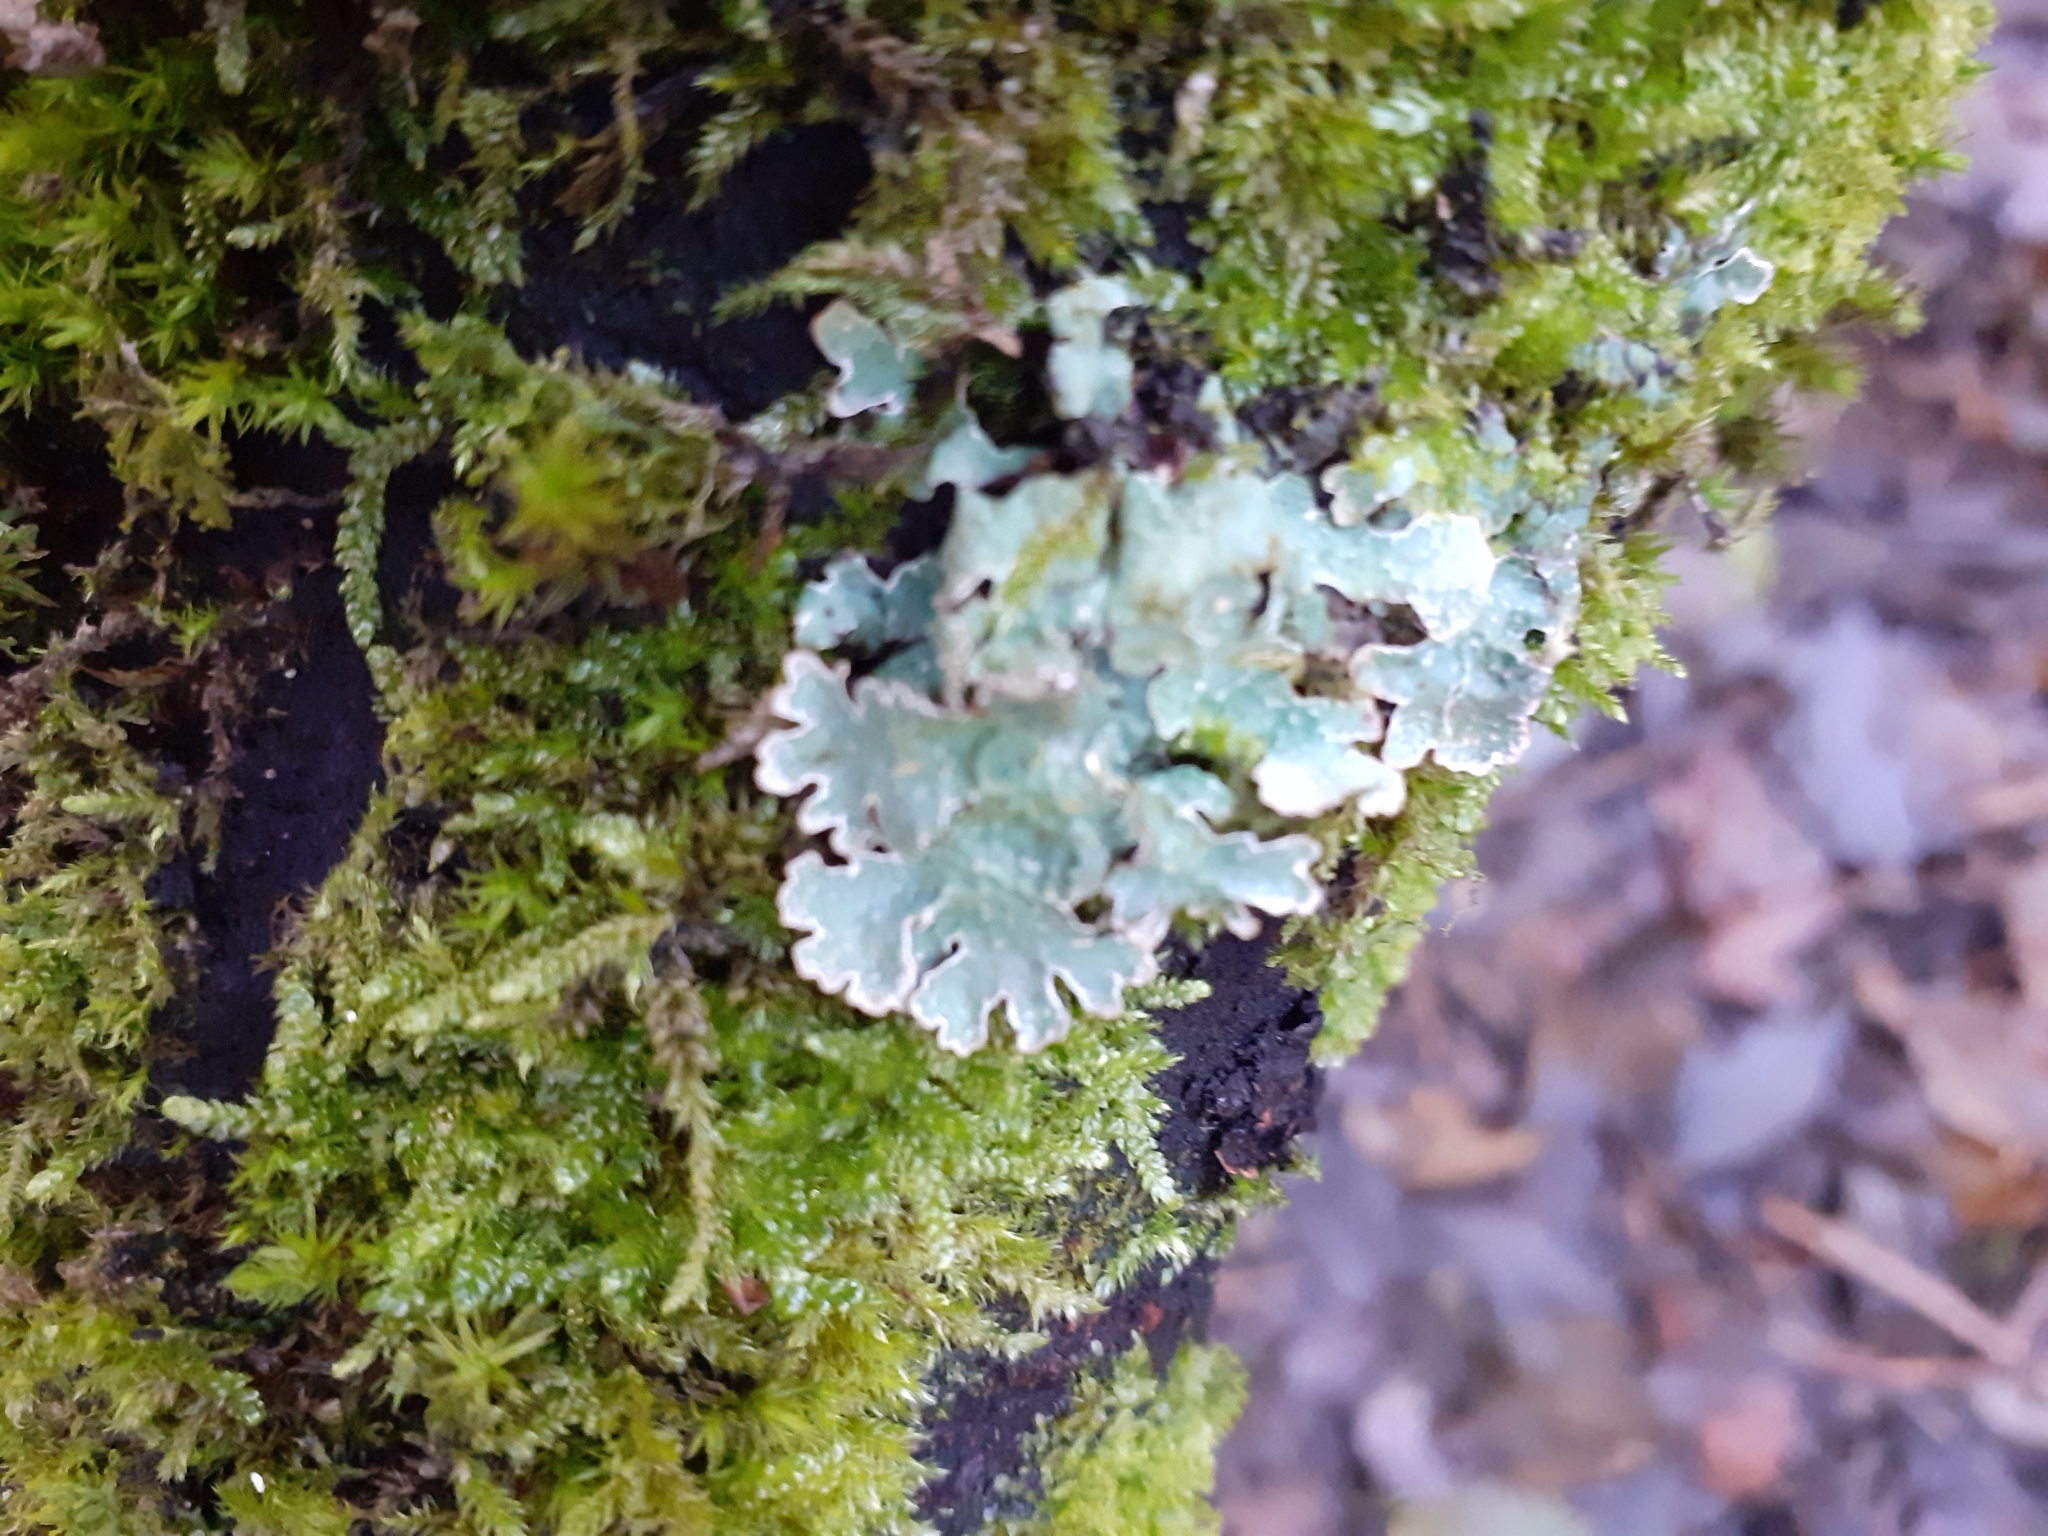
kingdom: Fungi
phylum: Ascomycota
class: Lecanoromycetes
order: Lecanorales
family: Parmeliaceae
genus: Parmelia
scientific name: Parmelia sulcata
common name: Netted shield lichen
